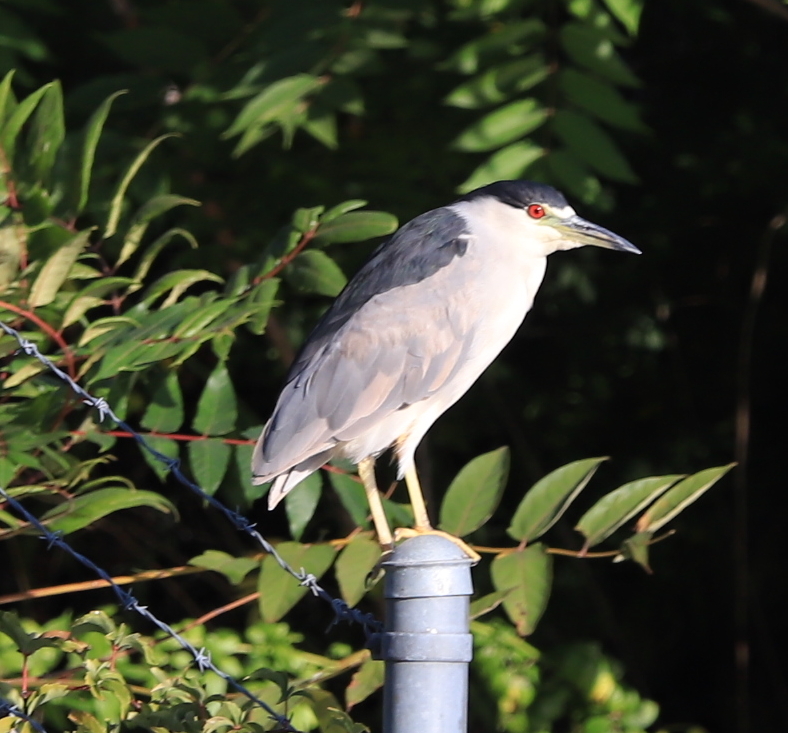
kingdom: Animalia
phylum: Chordata
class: Aves
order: Pelecaniformes
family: Ardeidae
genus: Nycticorax
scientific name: Nycticorax nycticorax
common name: Black-crowned night heron
